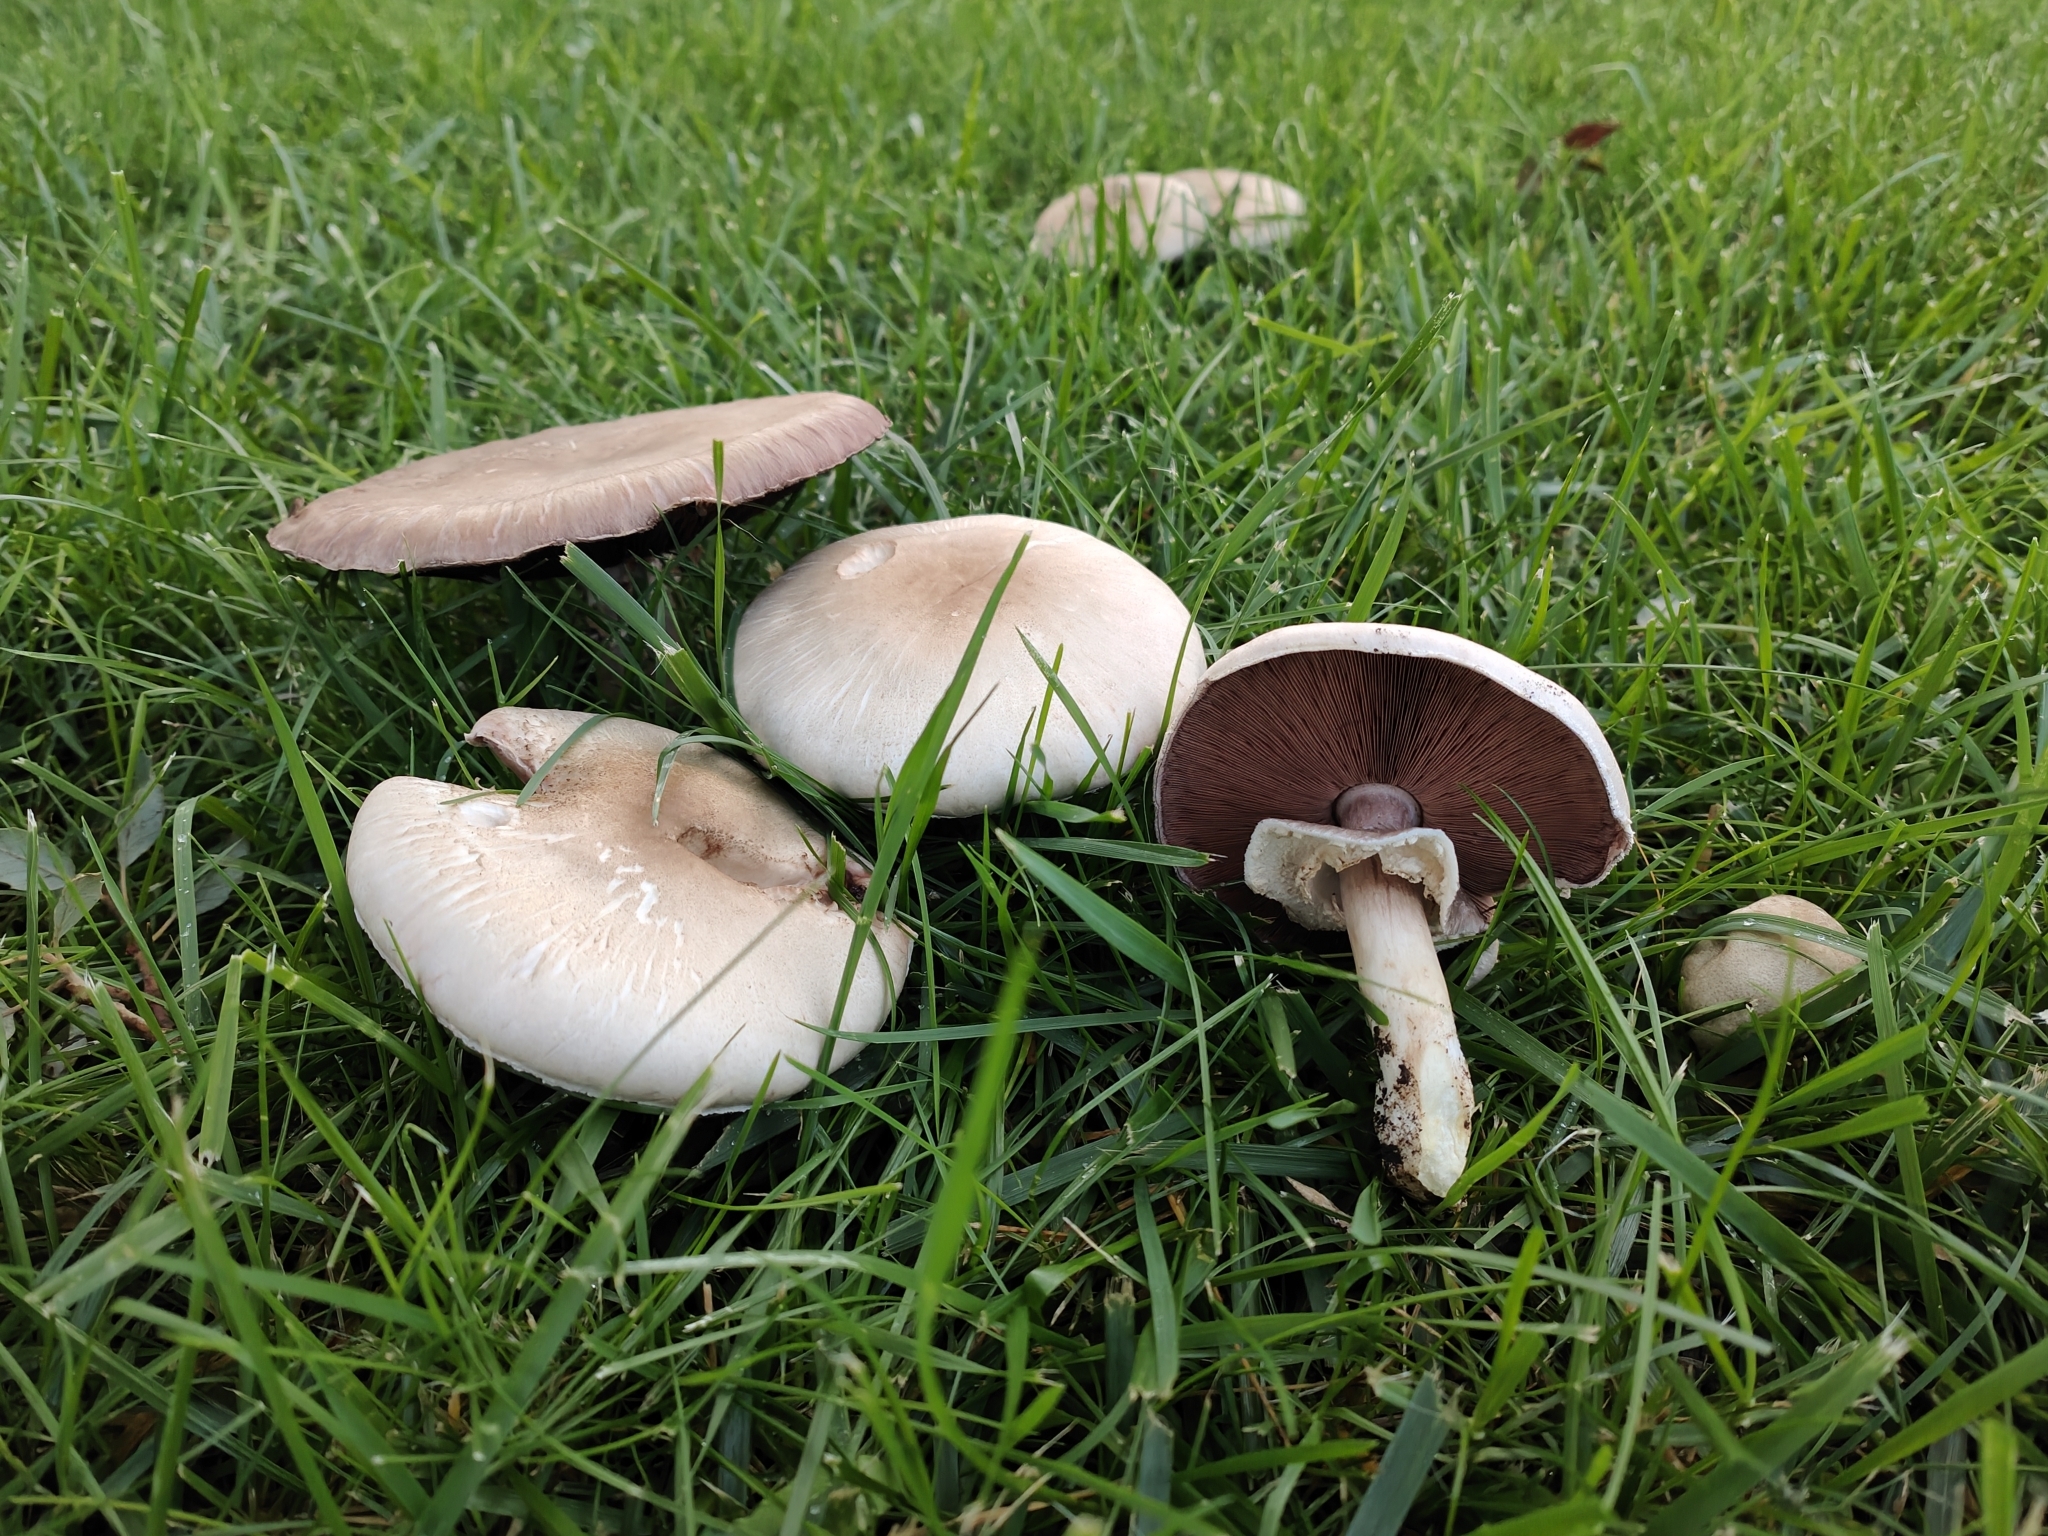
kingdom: Fungi
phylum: Basidiomycota
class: Agaricomycetes
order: Agaricales
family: Agaricaceae
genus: Agaricus
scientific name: Agaricus xanthodermus
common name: Yellow stainer
